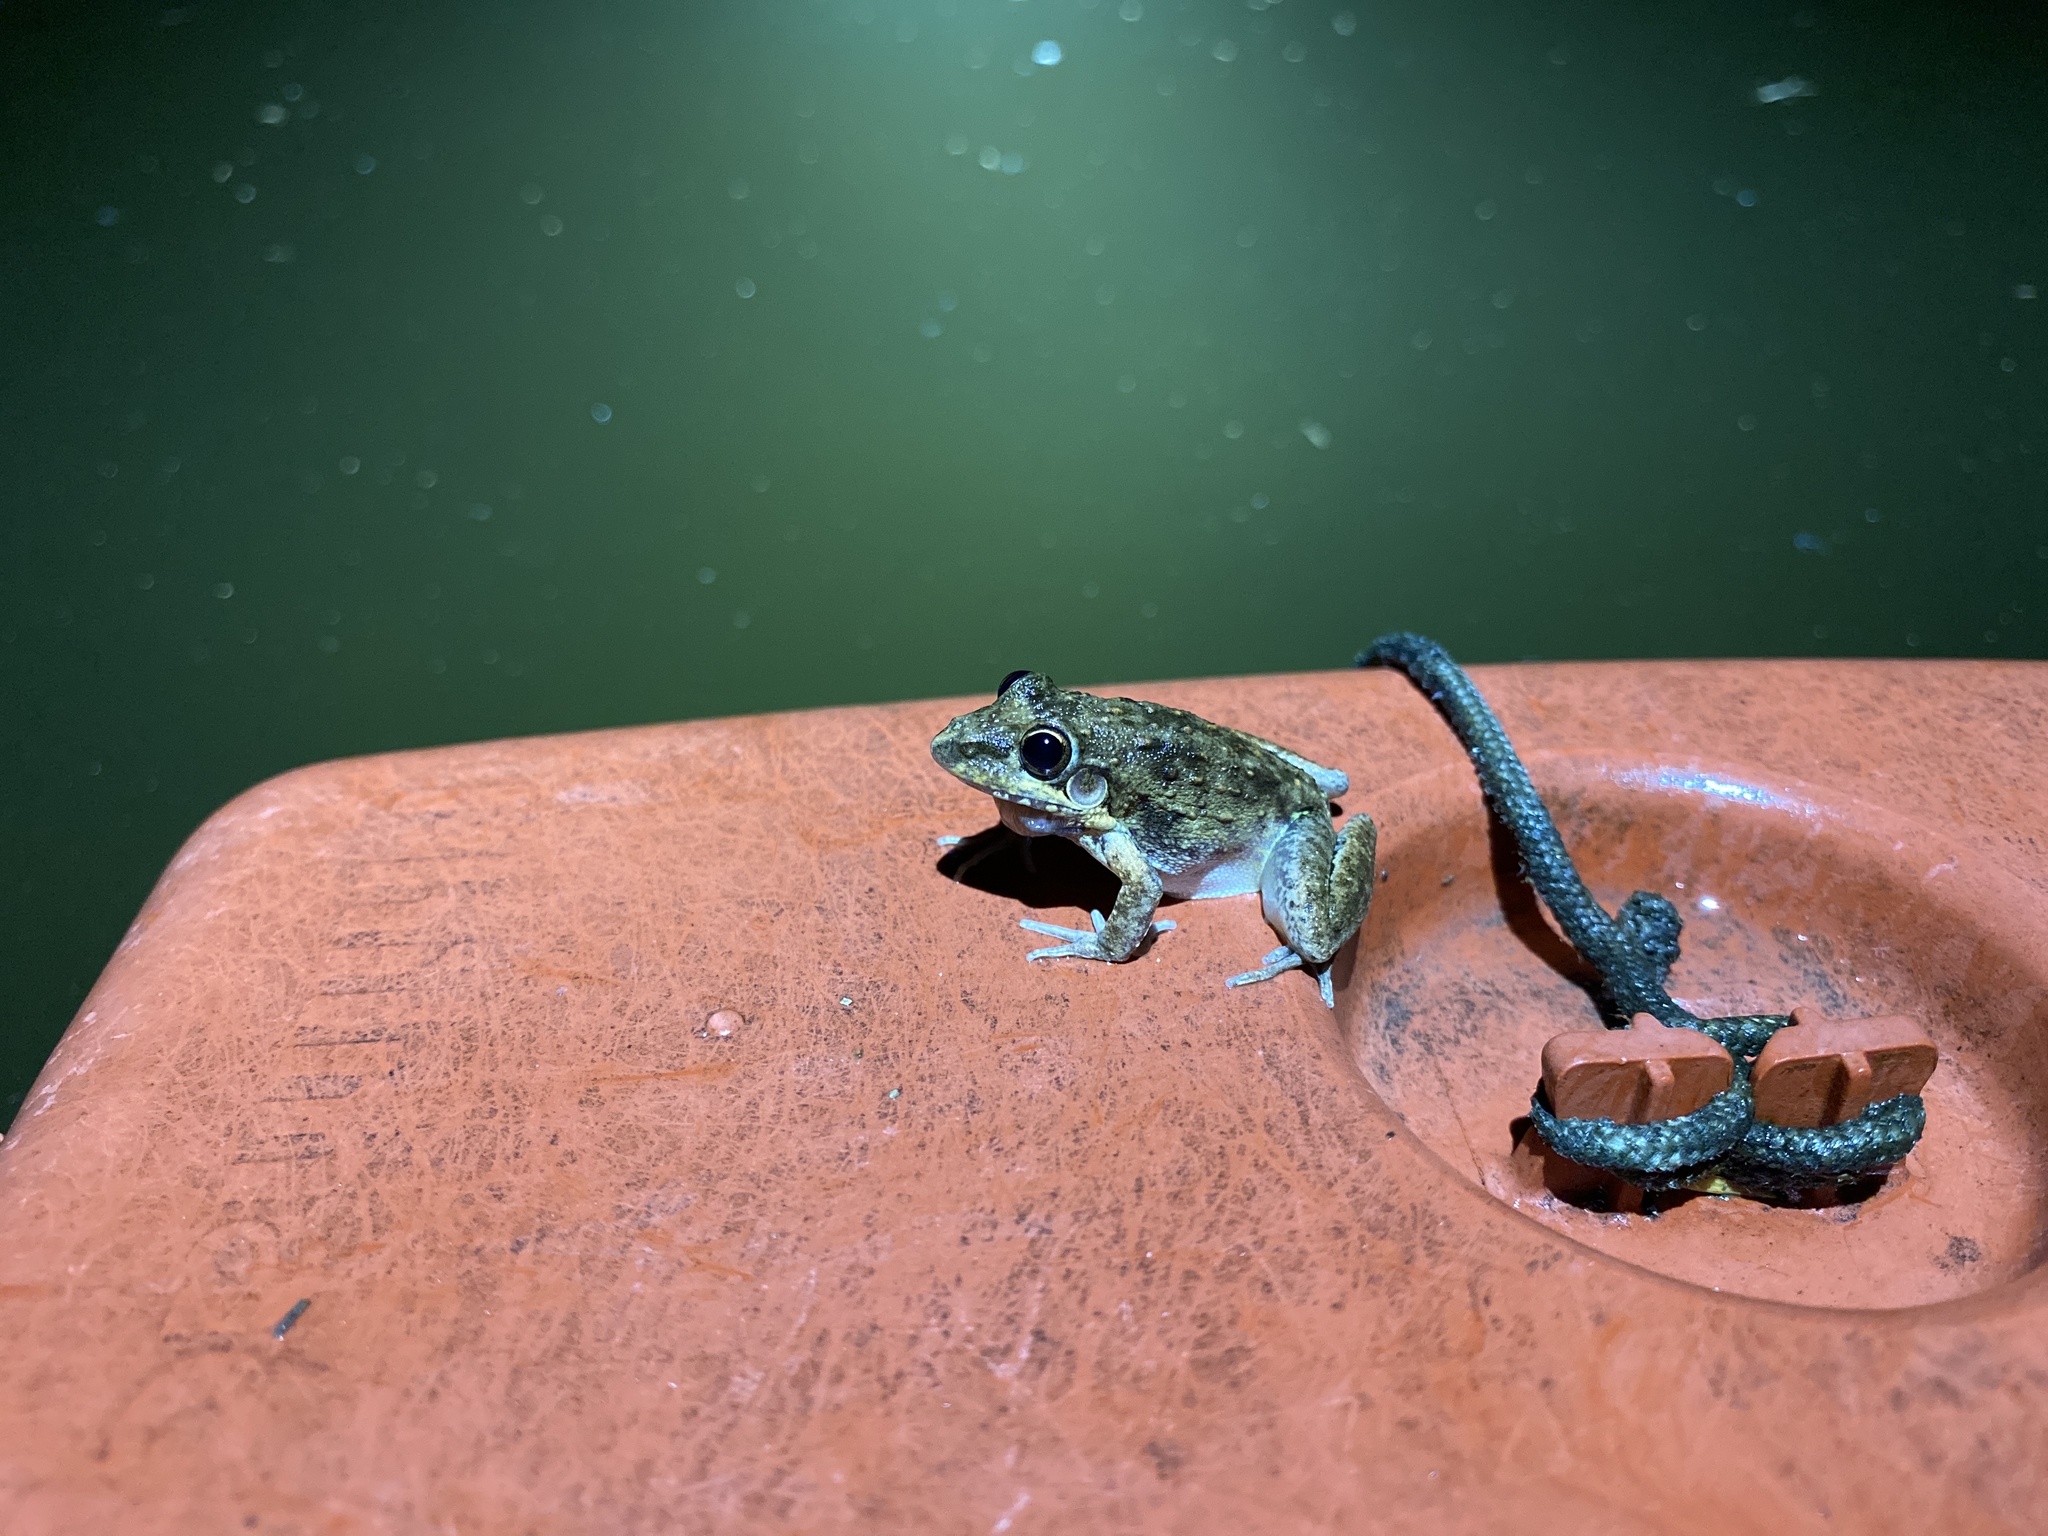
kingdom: Animalia
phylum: Chordata
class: Amphibia
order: Anura
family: Pelodryadidae
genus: Litoria
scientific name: Litoria inermis
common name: Bumpy rocket frog
